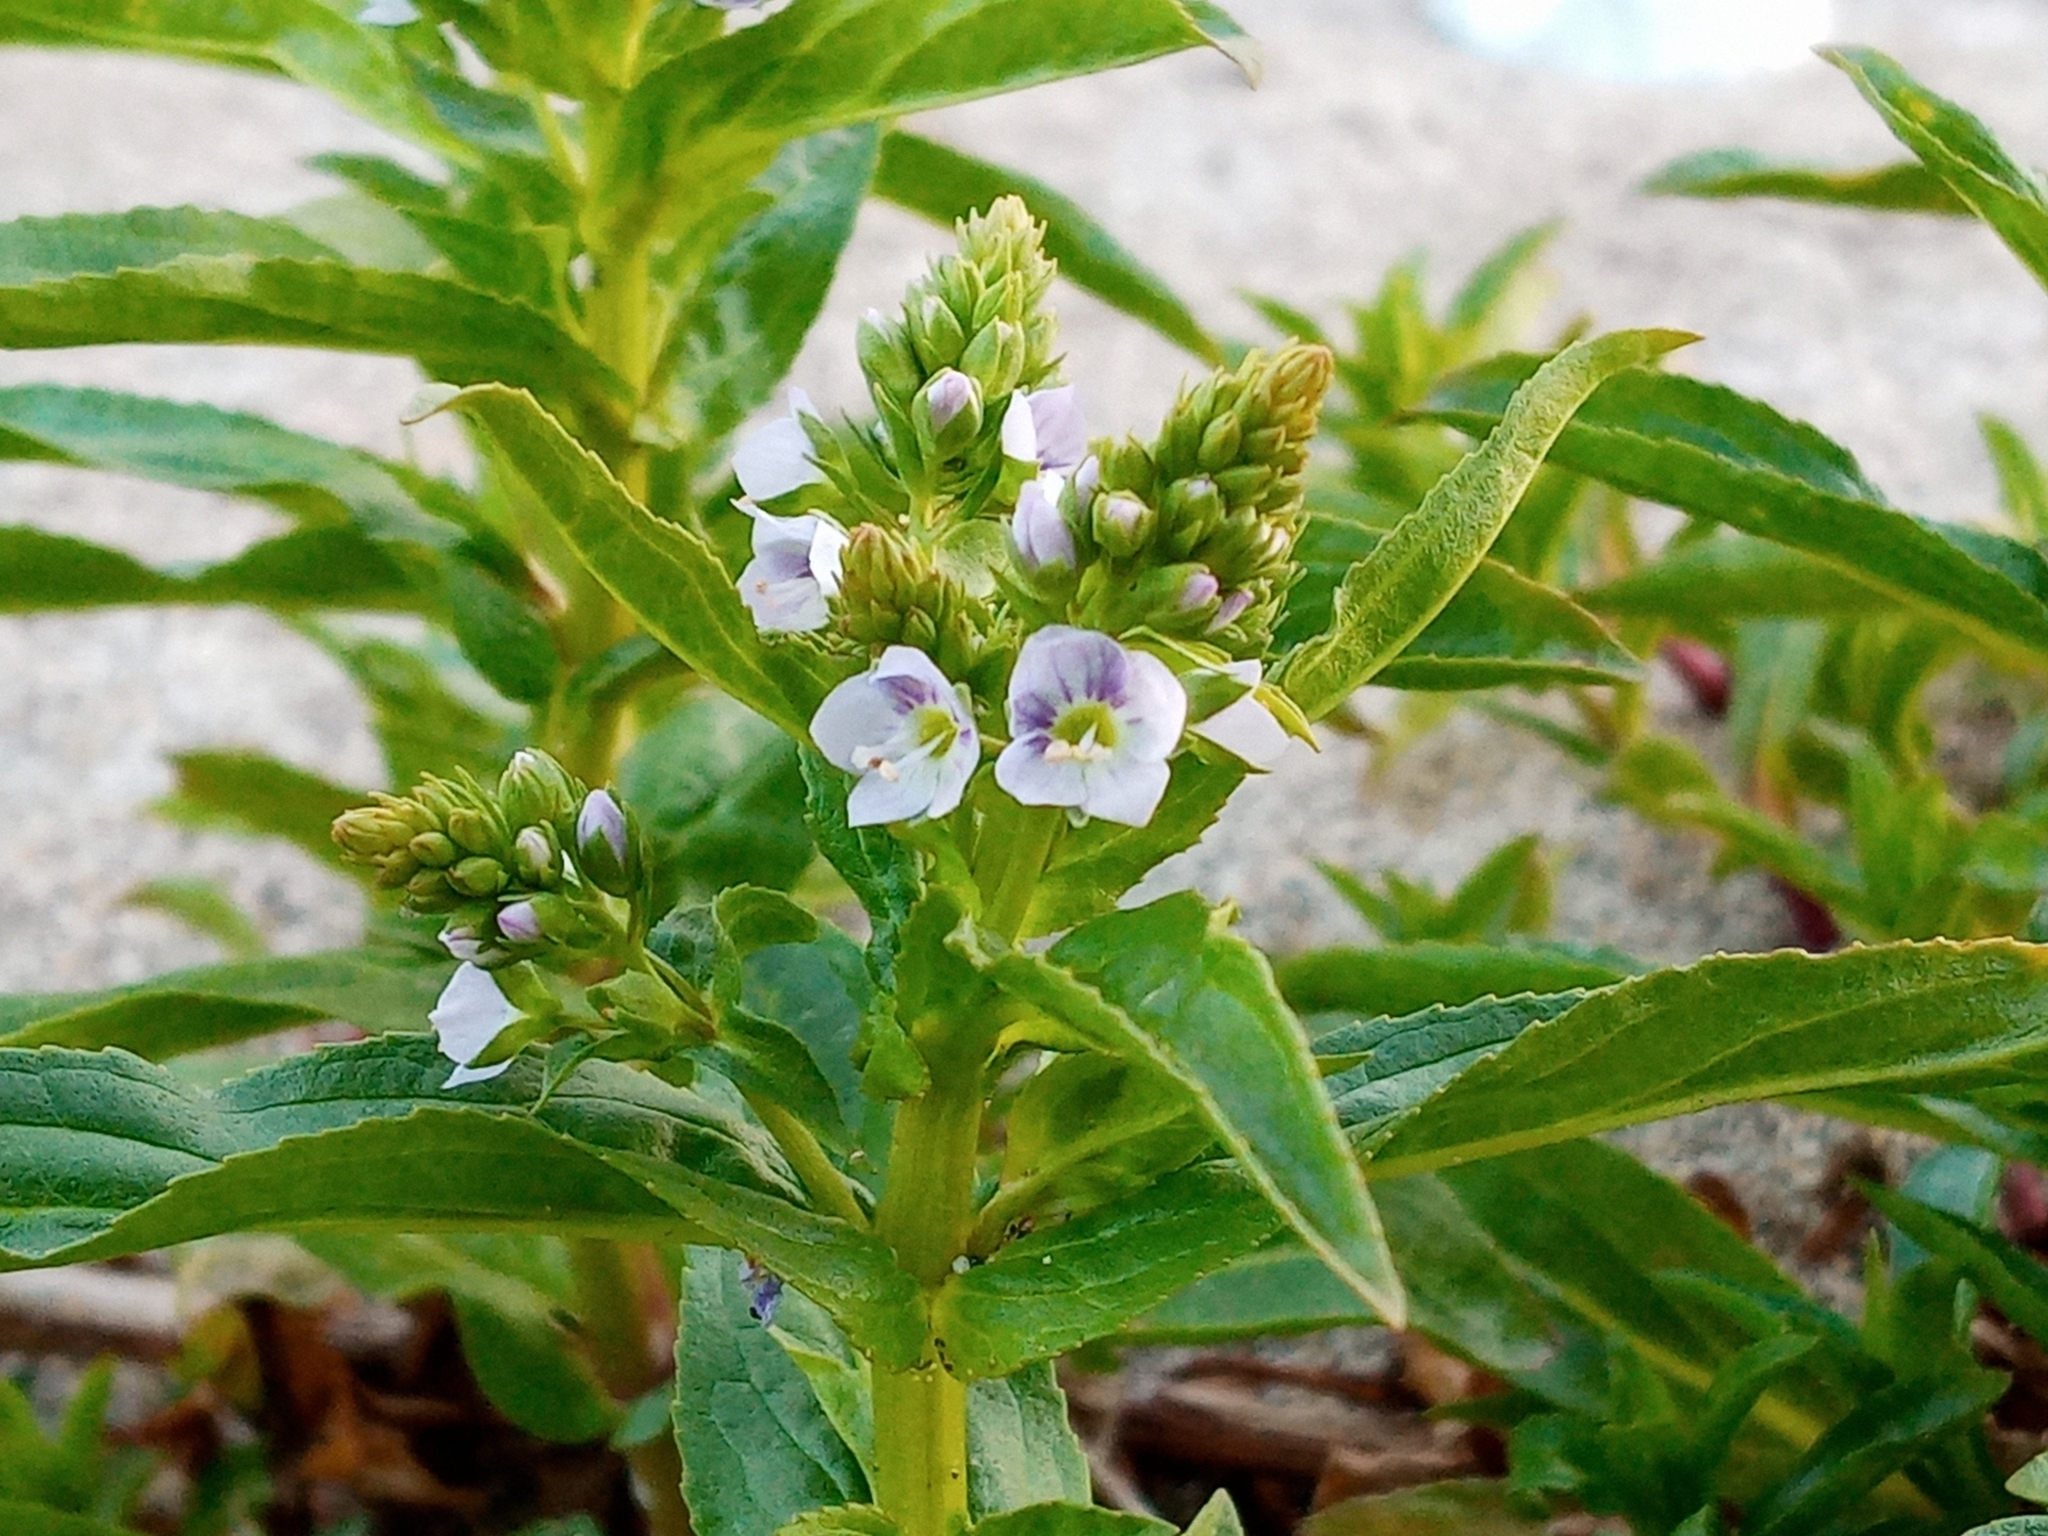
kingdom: Plantae
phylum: Tracheophyta
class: Magnoliopsida
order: Lamiales
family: Plantaginaceae
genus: Veronica
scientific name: Veronica anagallis-aquatica
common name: Water speedwell
